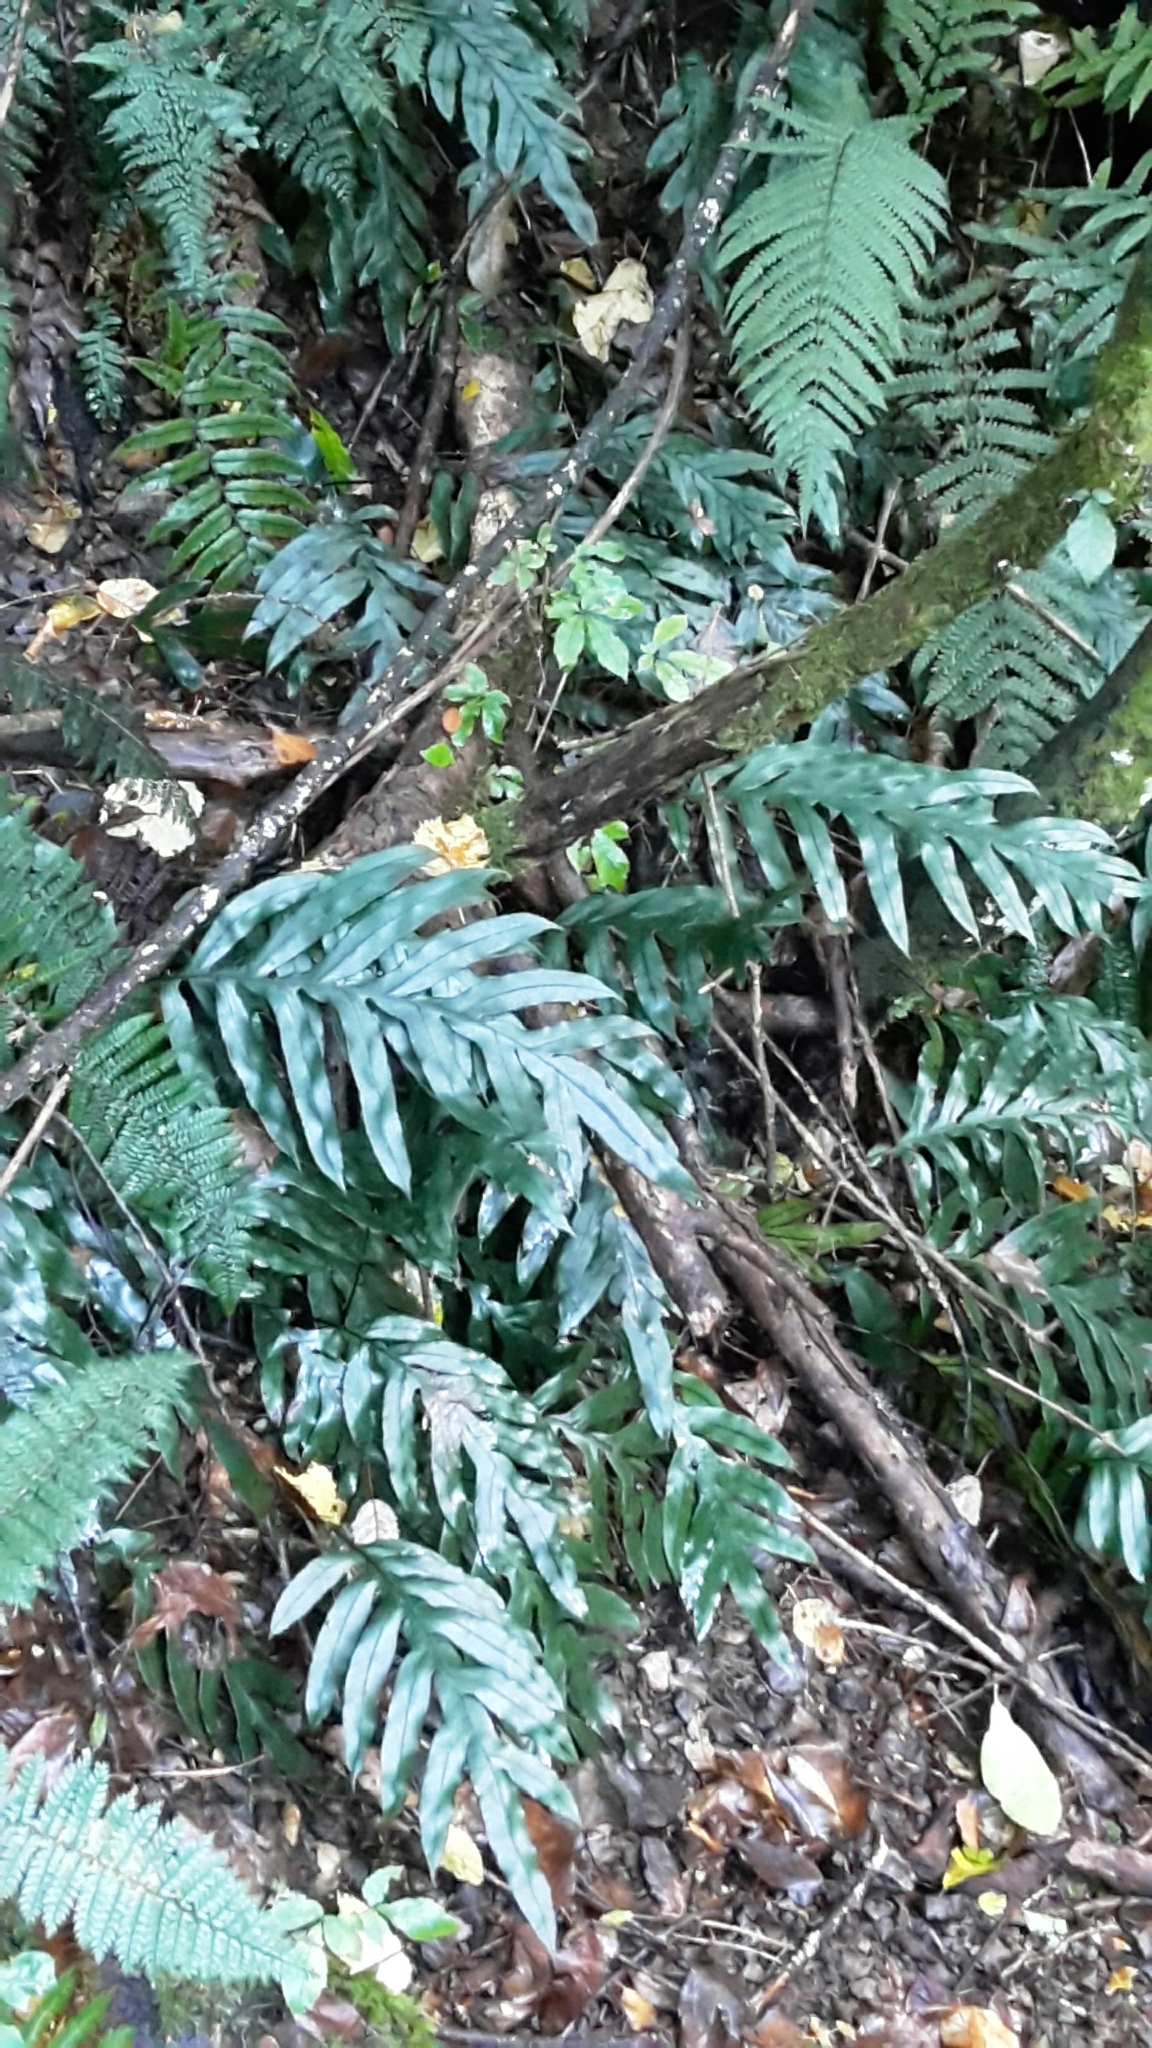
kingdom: Plantae
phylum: Tracheophyta
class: Polypodiopsida
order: Polypodiales
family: Blechnaceae
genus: Austroblechnum
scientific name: Austroblechnum colensoi
